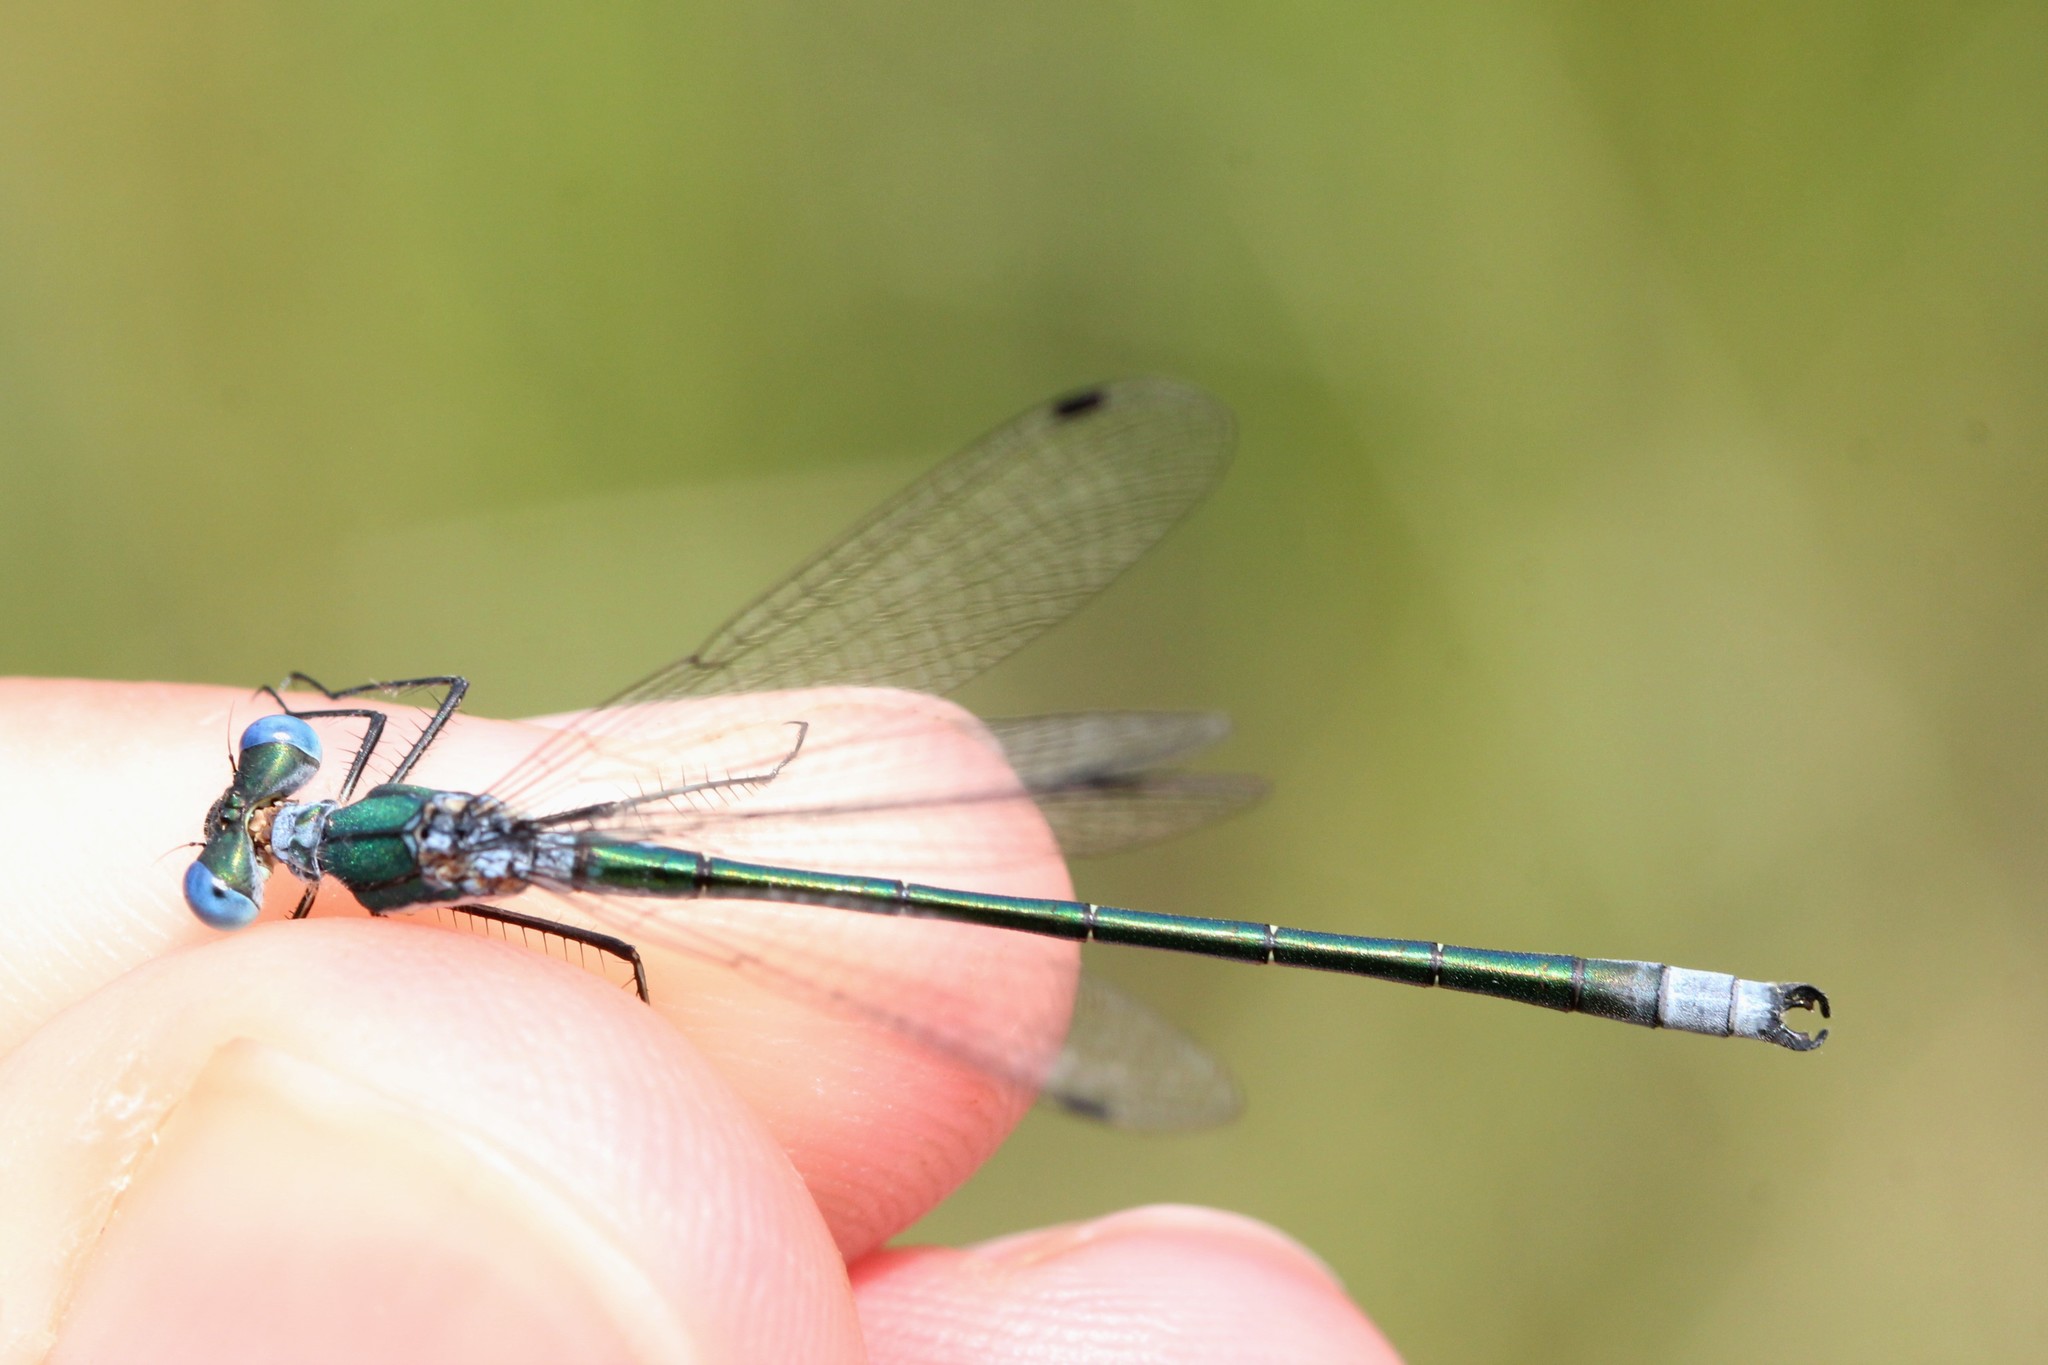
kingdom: Animalia
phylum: Arthropoda
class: Insecta
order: Odonata
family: Lestidae
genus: Lestes
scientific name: Lestes dryas
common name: Scarce emerald damselfly
